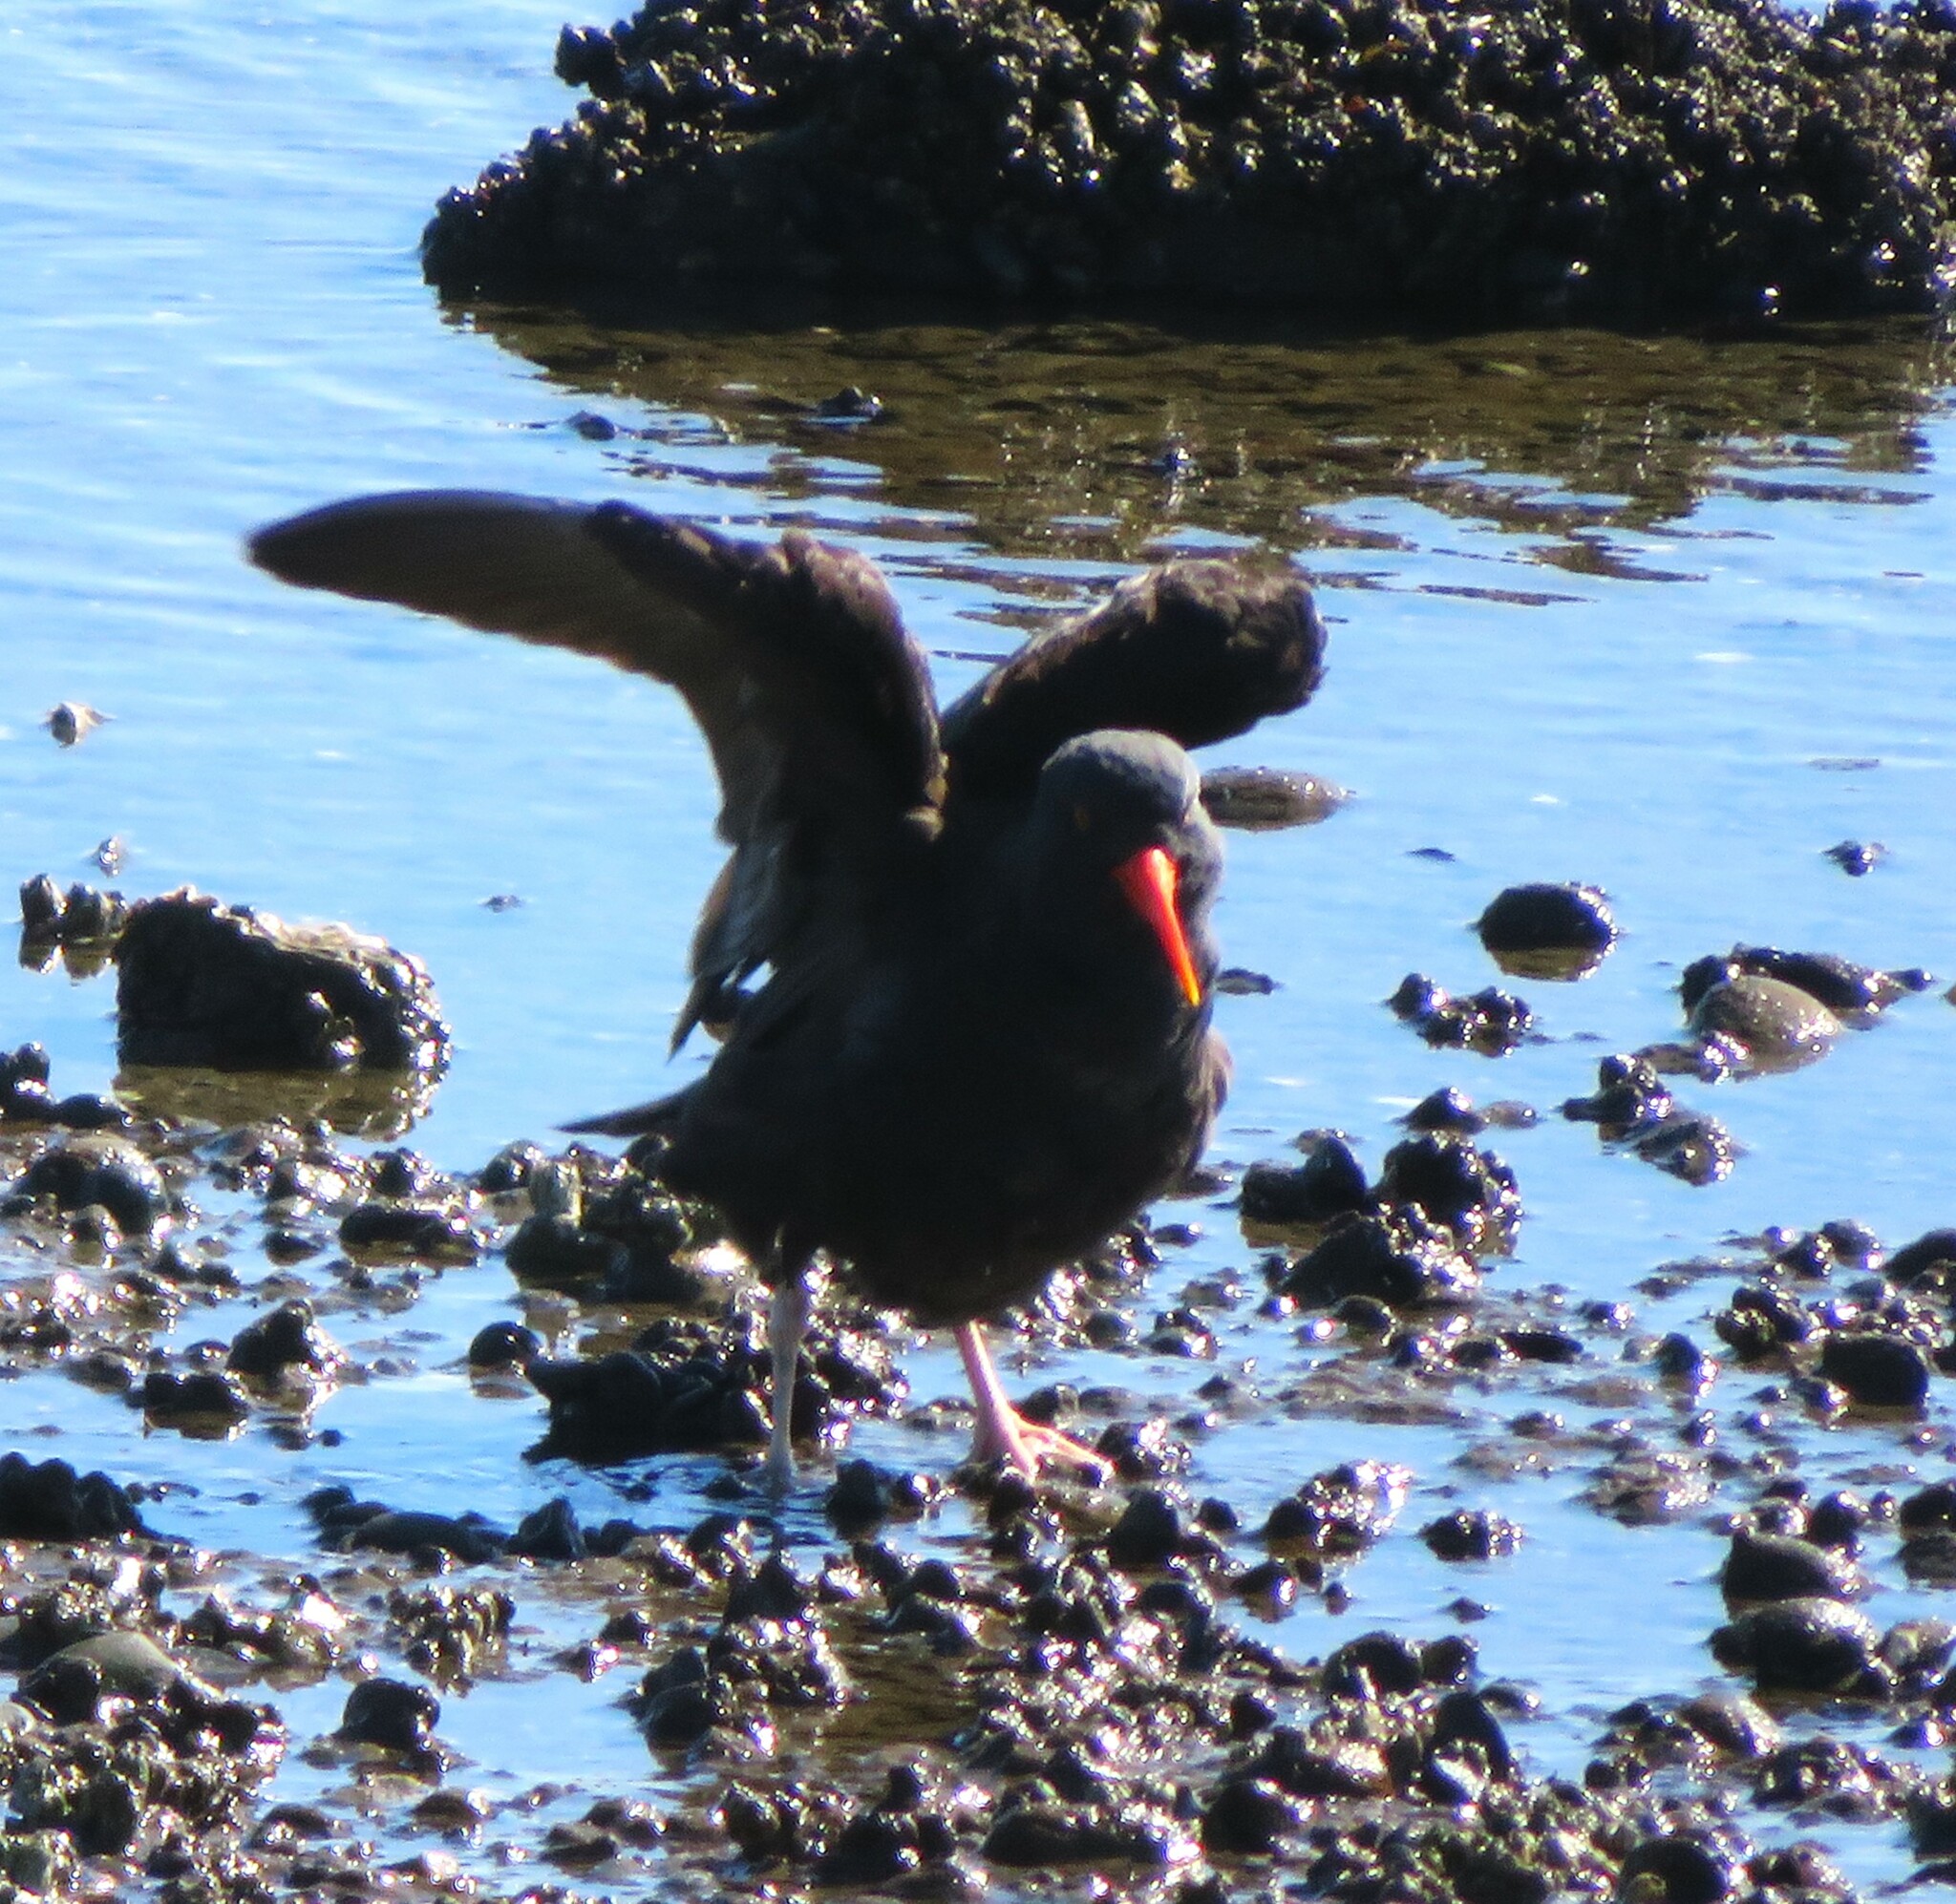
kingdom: Animalia
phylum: Chordata
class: Aves
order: Charadriiformes
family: Haematopodidae
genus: Haematopus
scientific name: Haematopus bachmani
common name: Black oystercatcher
